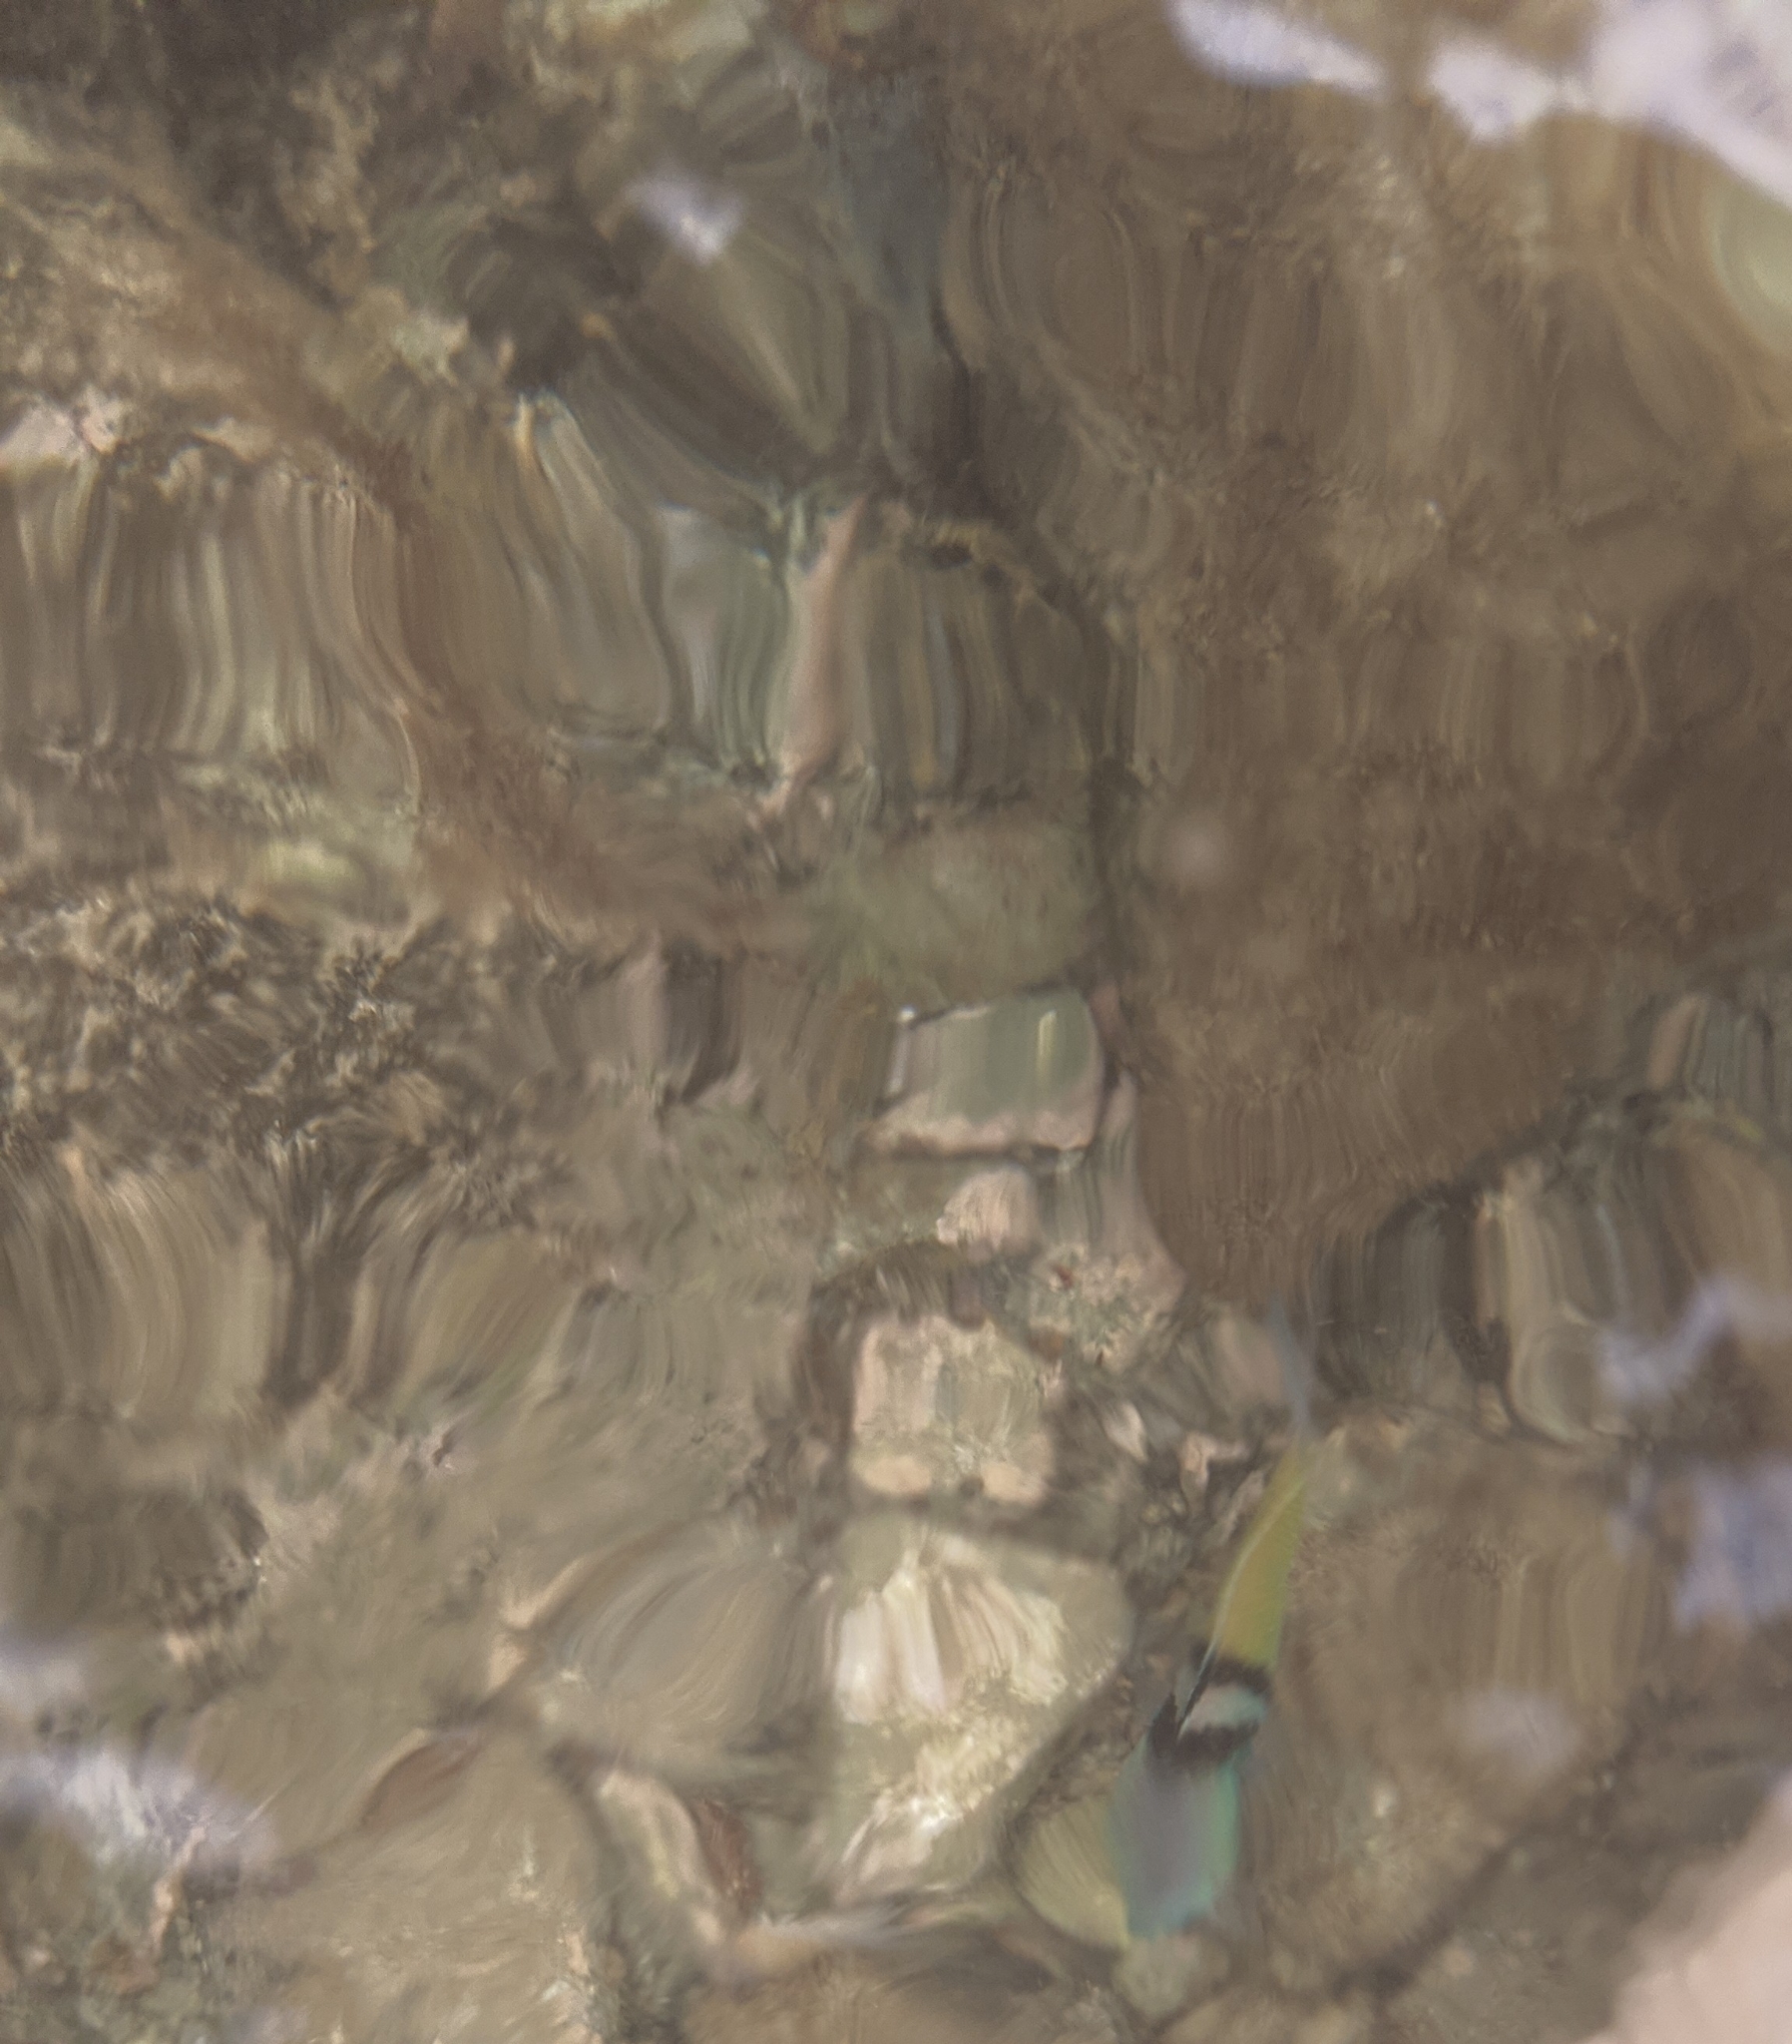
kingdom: Animalia
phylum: Chordata
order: Perciformes
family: Labridae
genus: Thalassoma
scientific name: Thalassoma bifasciatum
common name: Bluehead wrasse
